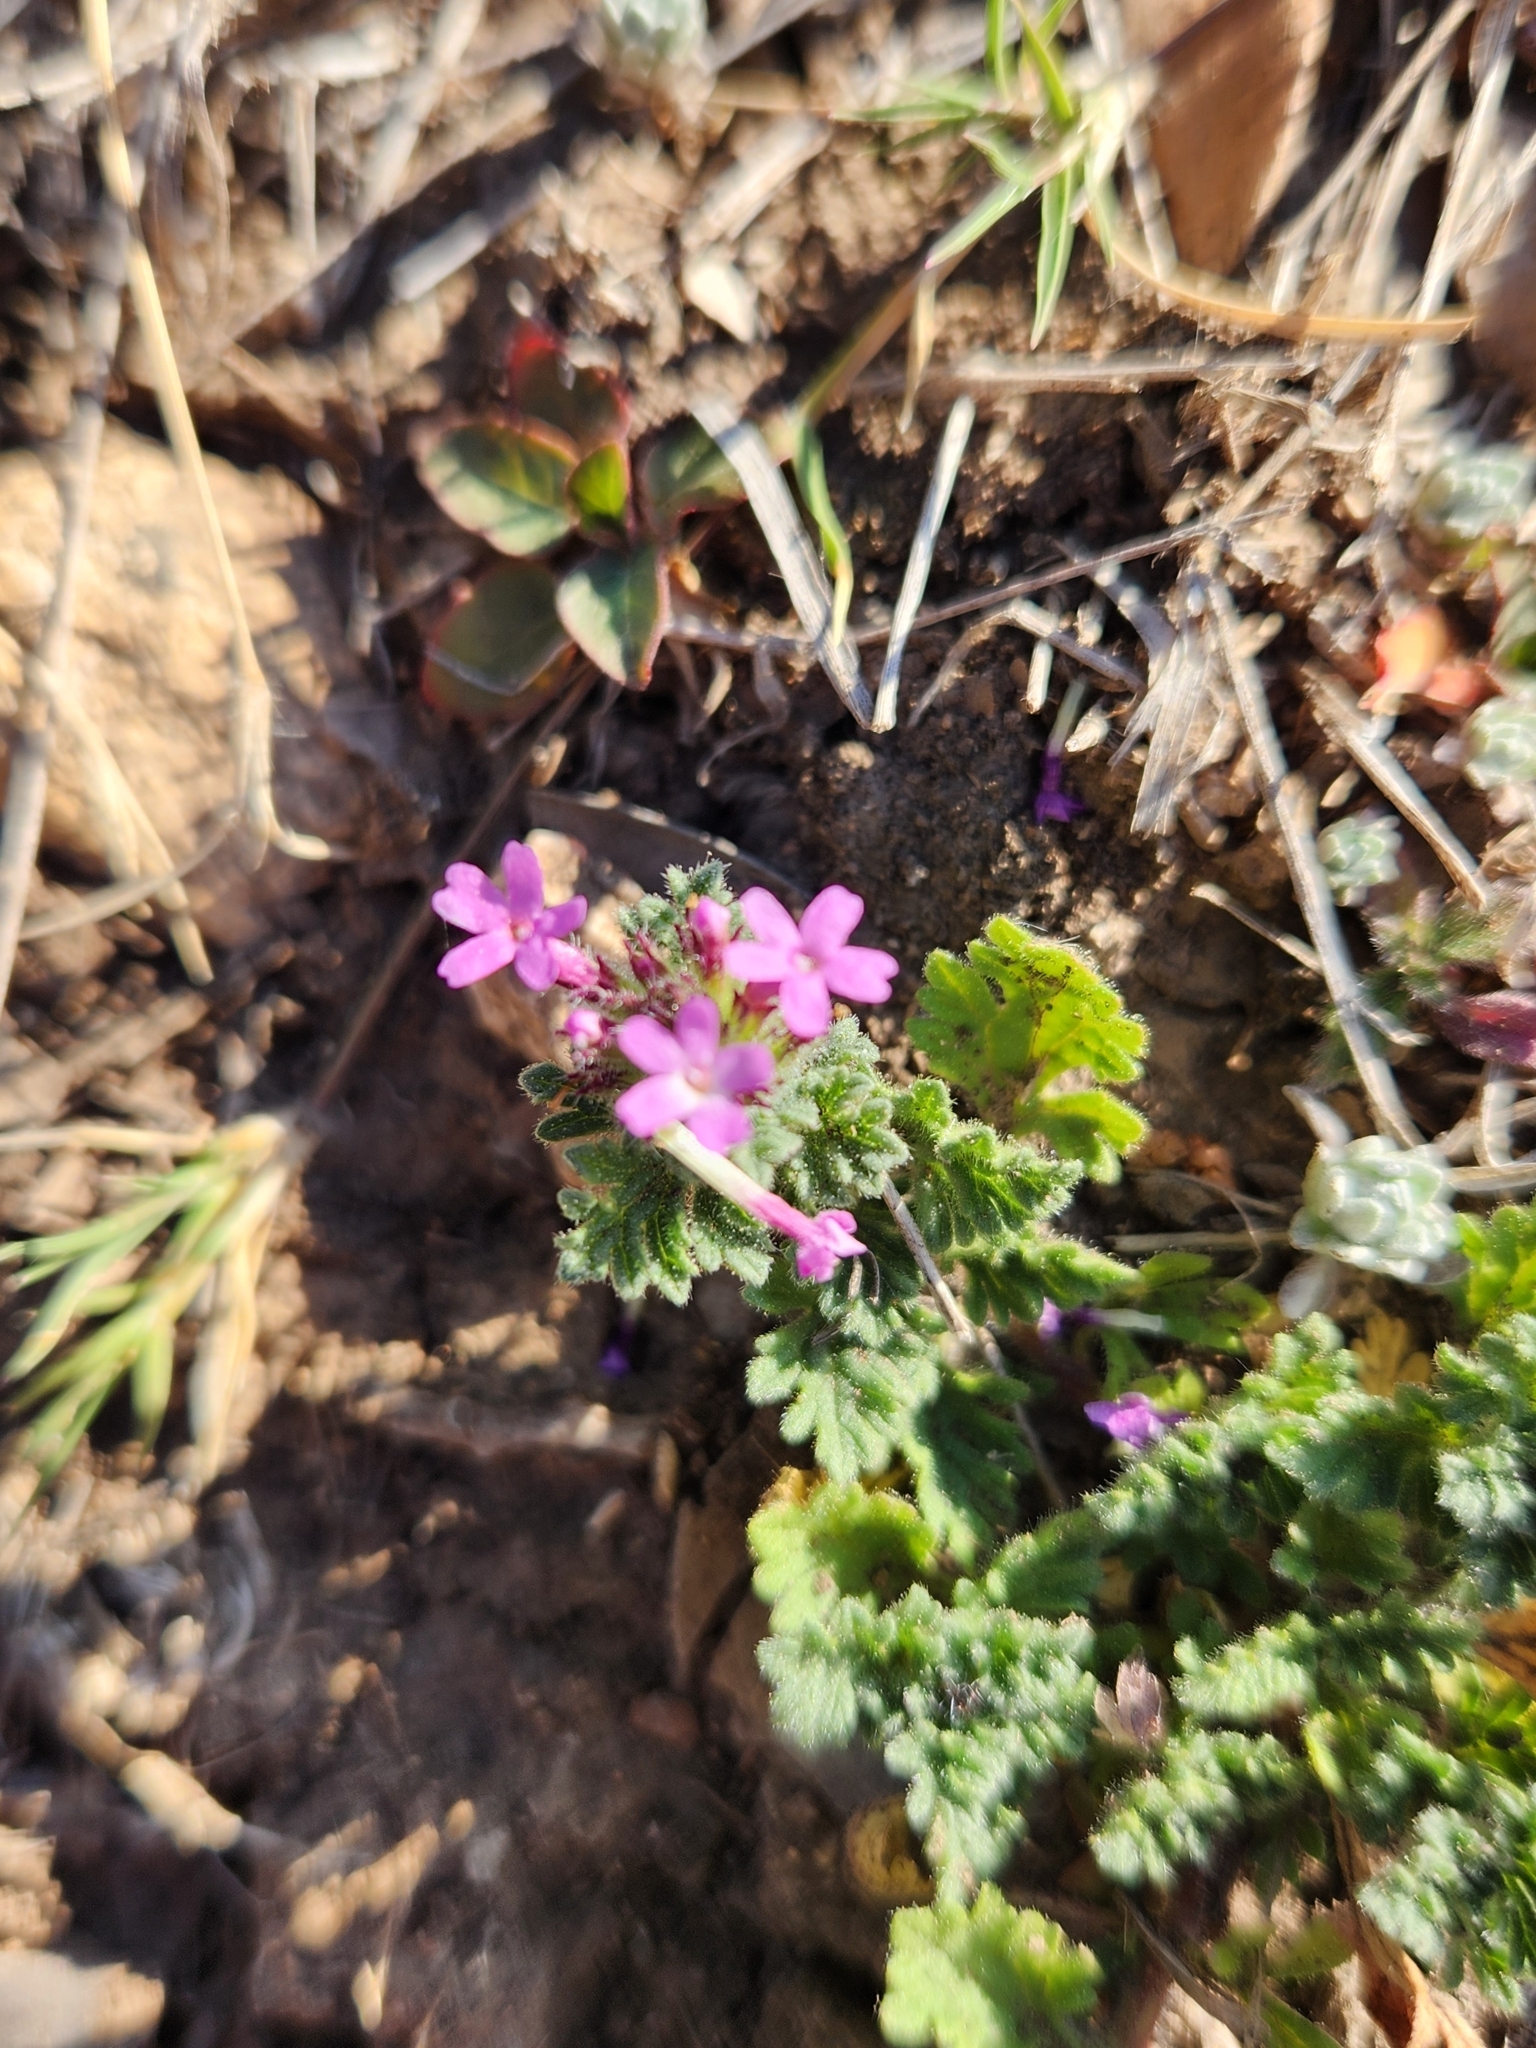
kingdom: Plantae
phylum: Tracheophyta
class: Magnoliopsida
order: Lamiales
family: Verbenaceae
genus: Verbena
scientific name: Verbena pumila
